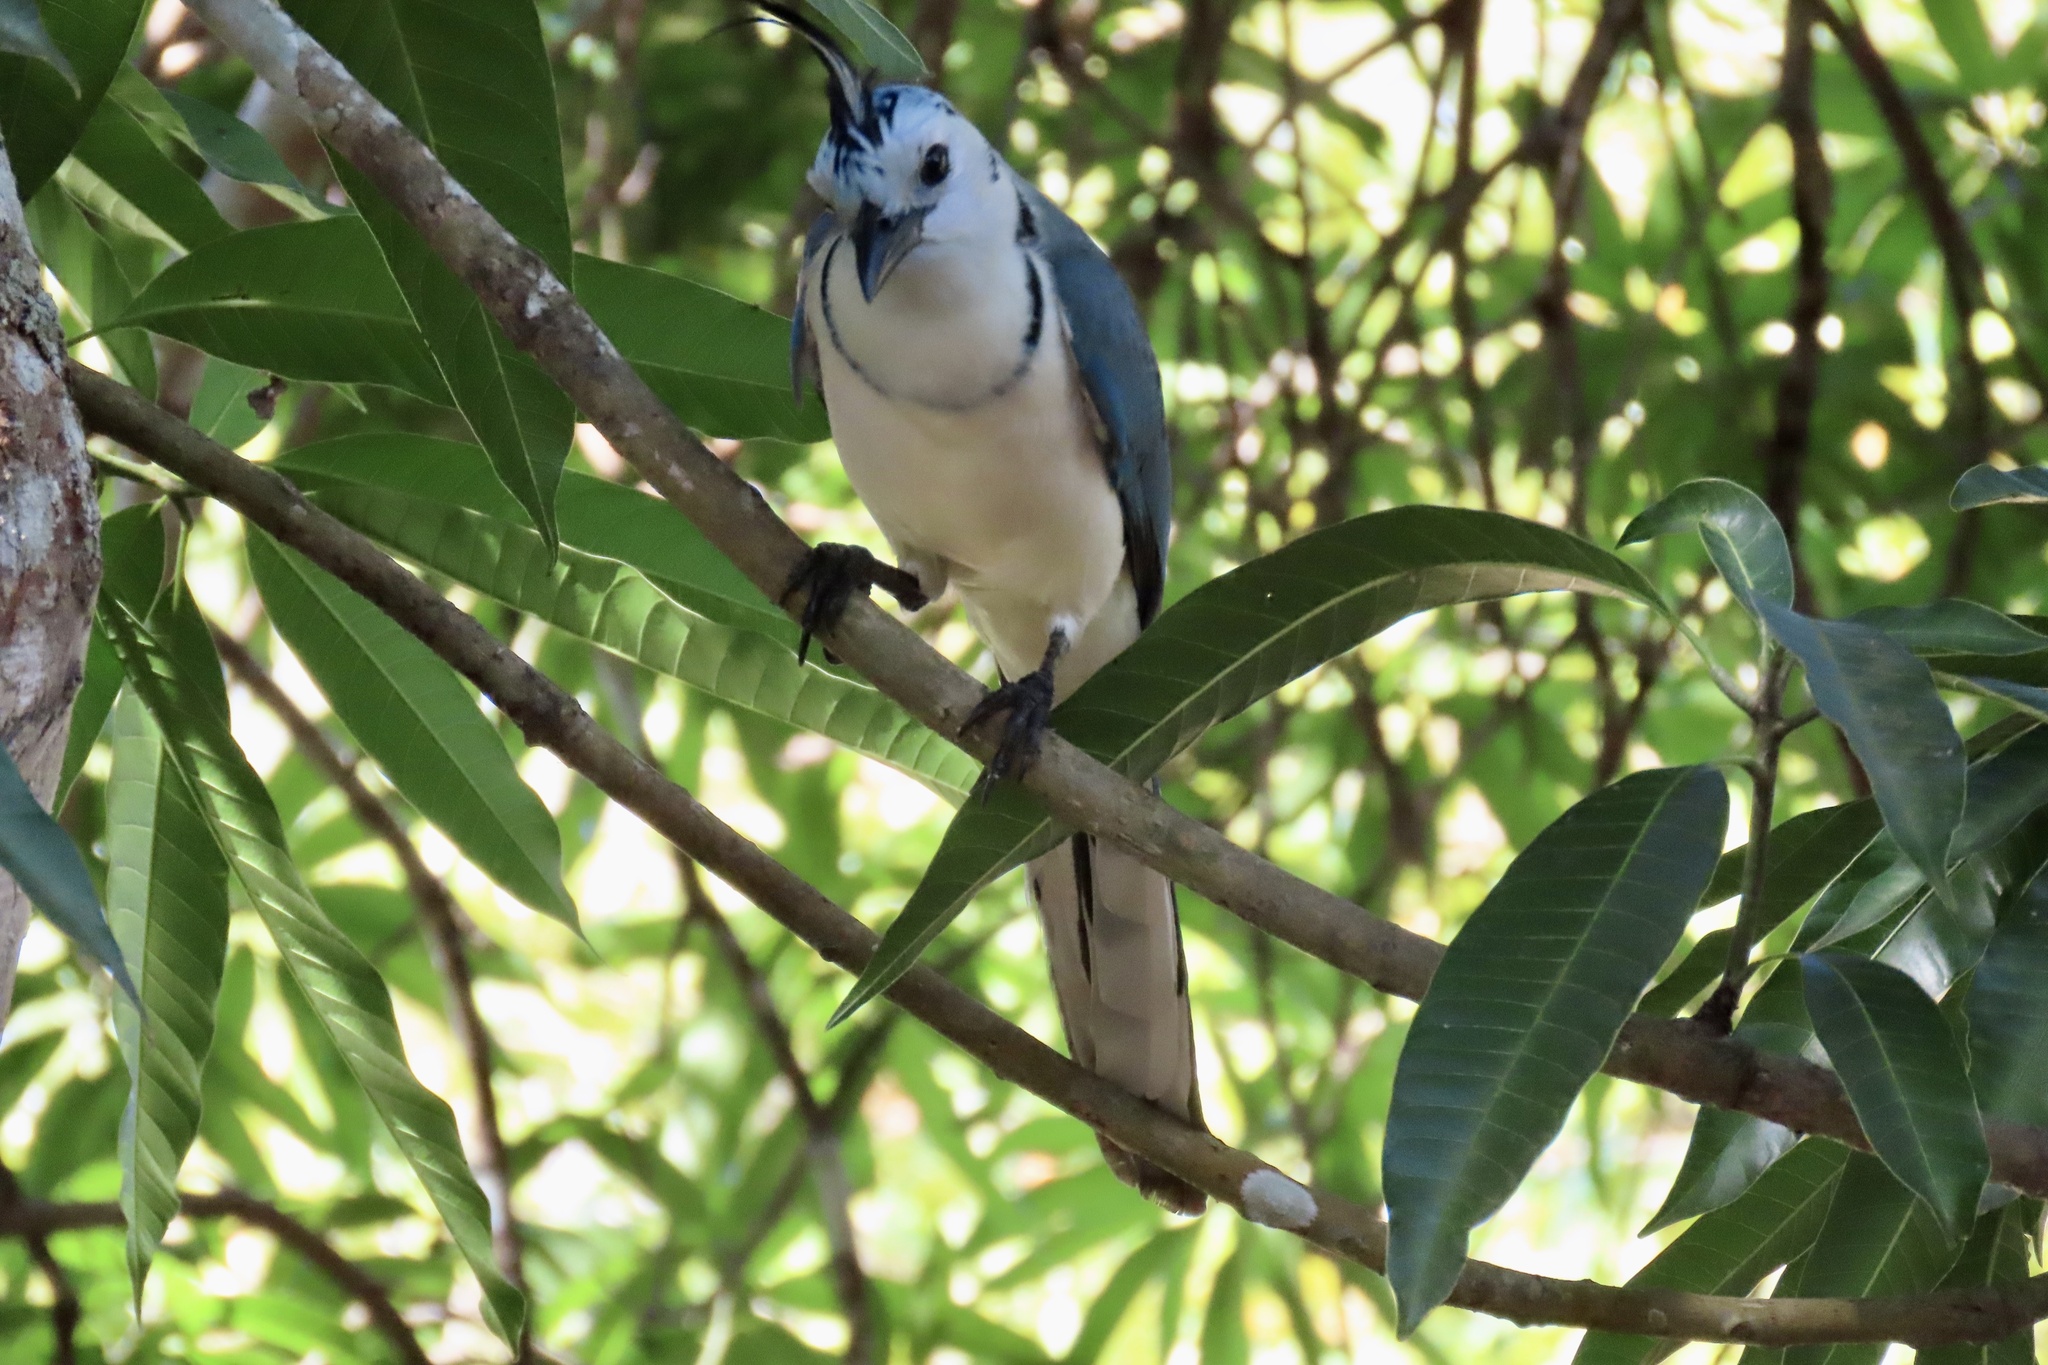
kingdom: Animalia
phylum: Chordata
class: Aves
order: Passeriformes
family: Corvidae
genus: Calocitta
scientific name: Calocitta formosa
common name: White-throated magpie-jay
